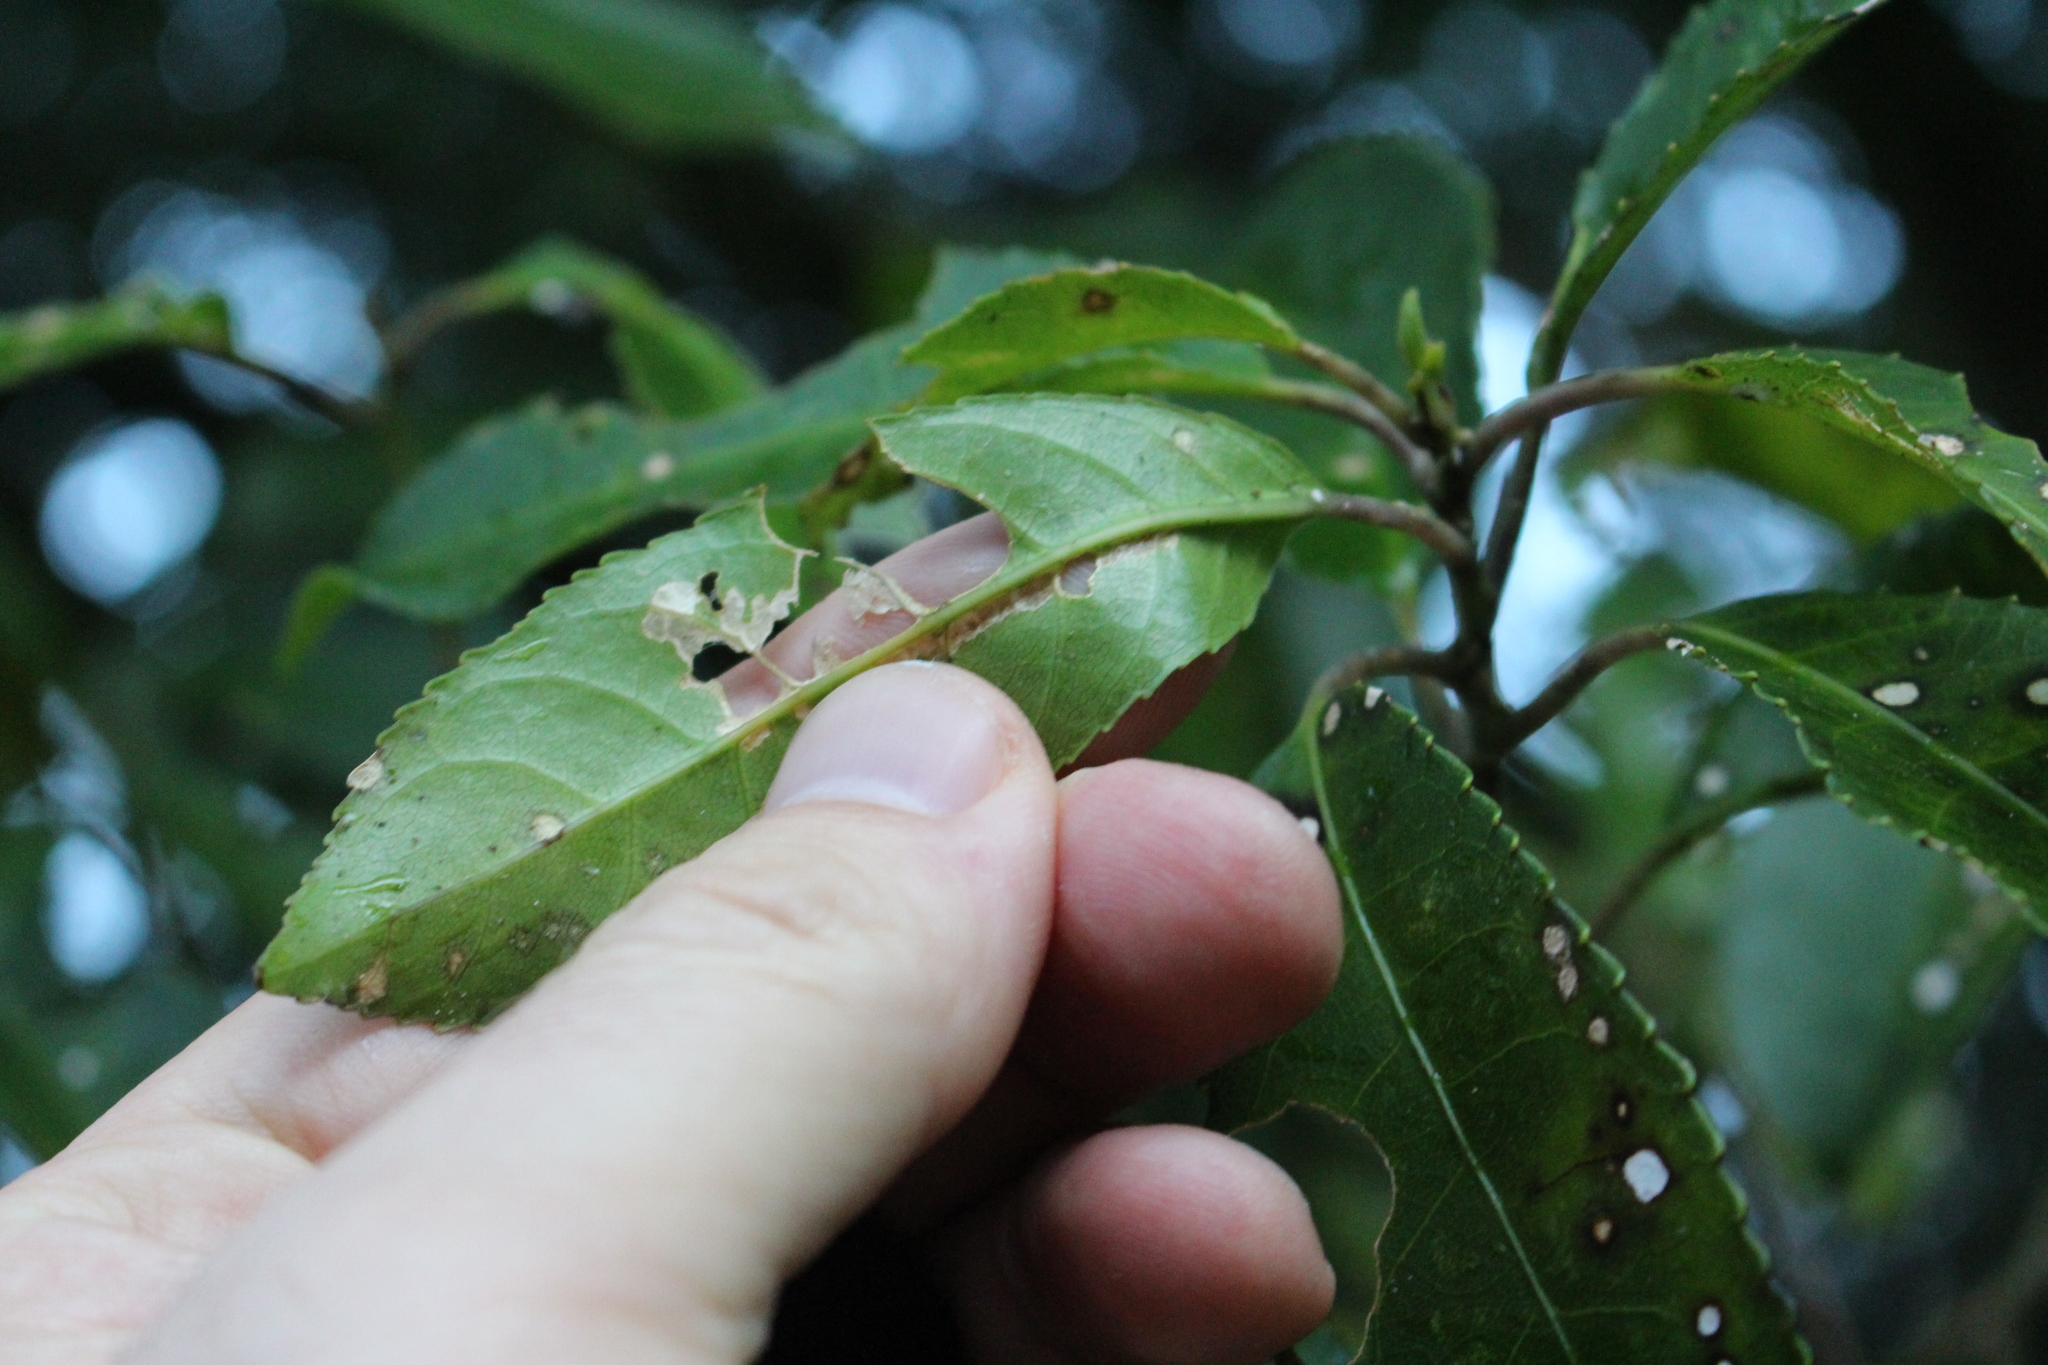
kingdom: Plantae
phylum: Tracheophyta
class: Magnoliopsida
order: Malpighiales
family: Violaceae
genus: Melicytus
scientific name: Melicytus ramiflorus
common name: Mahoe
